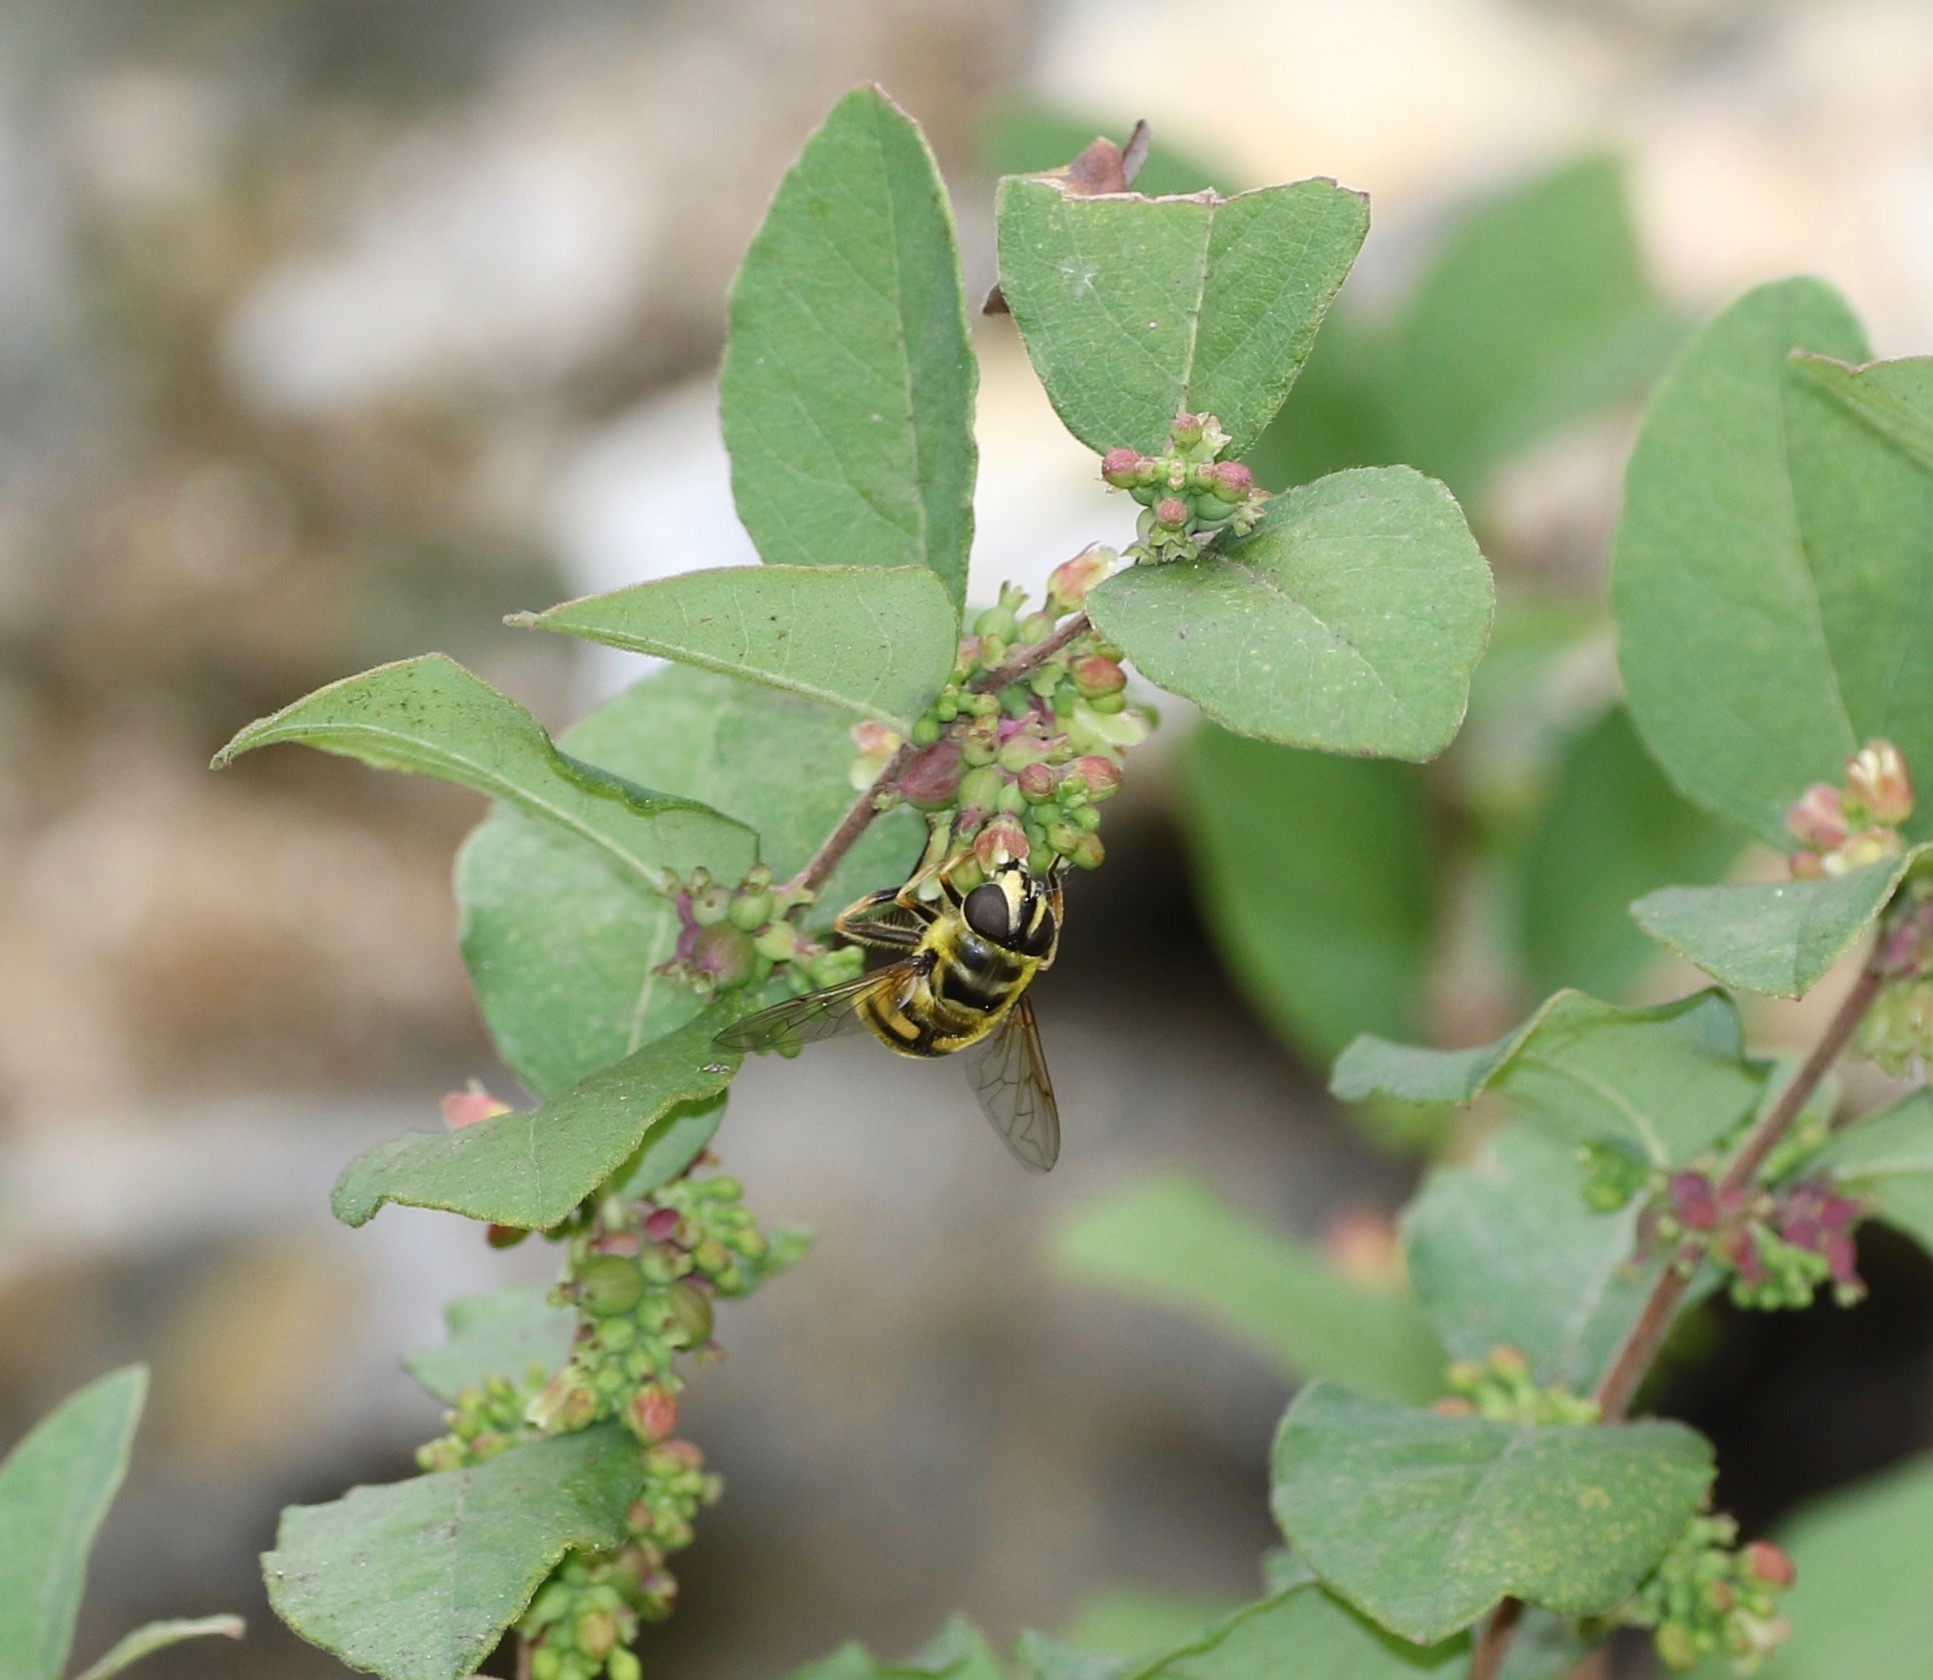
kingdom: Animalia
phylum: Arthropoda
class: Insecta
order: Diptera
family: Syrphidae
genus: Myathropa
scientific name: Myathropa florea
